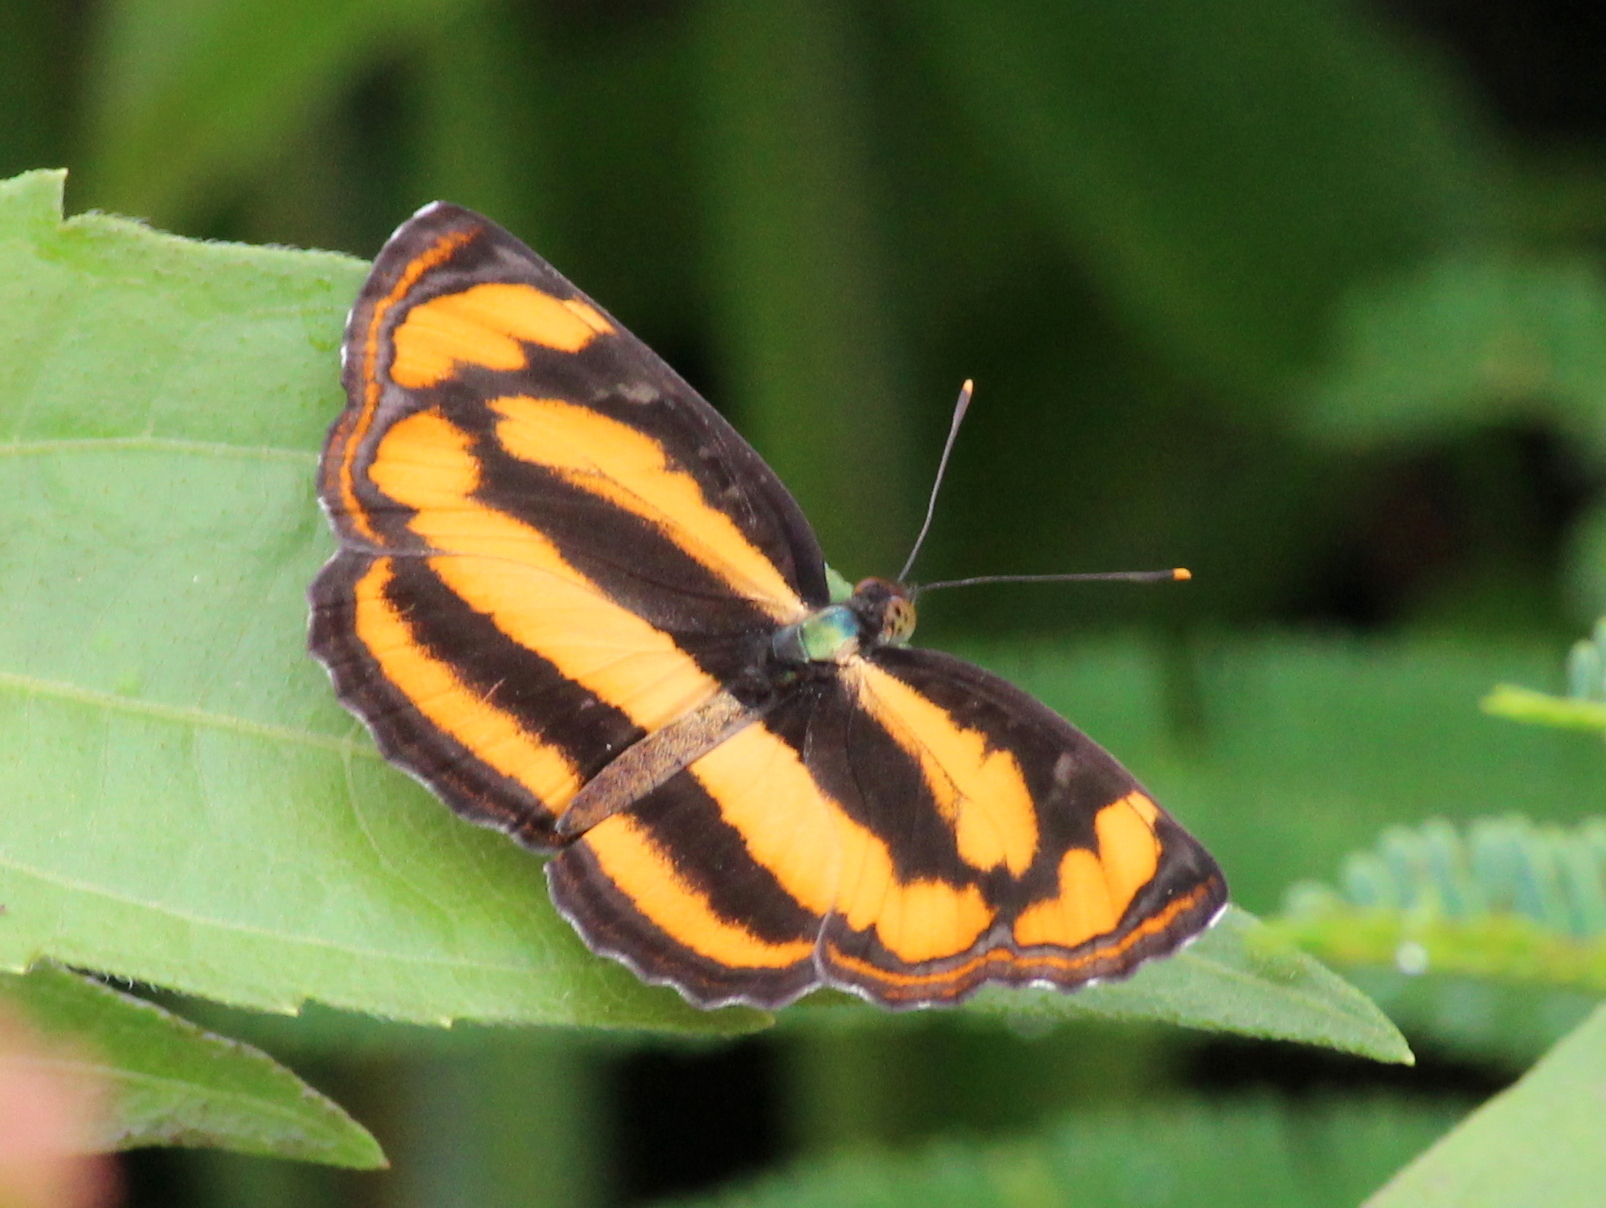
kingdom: Animalia
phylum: Arthropoda
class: Insecta
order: Lepidoptera
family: Nymphalidae
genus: Pantoporia
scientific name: Pantoporia hordonia
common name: Common lascar
